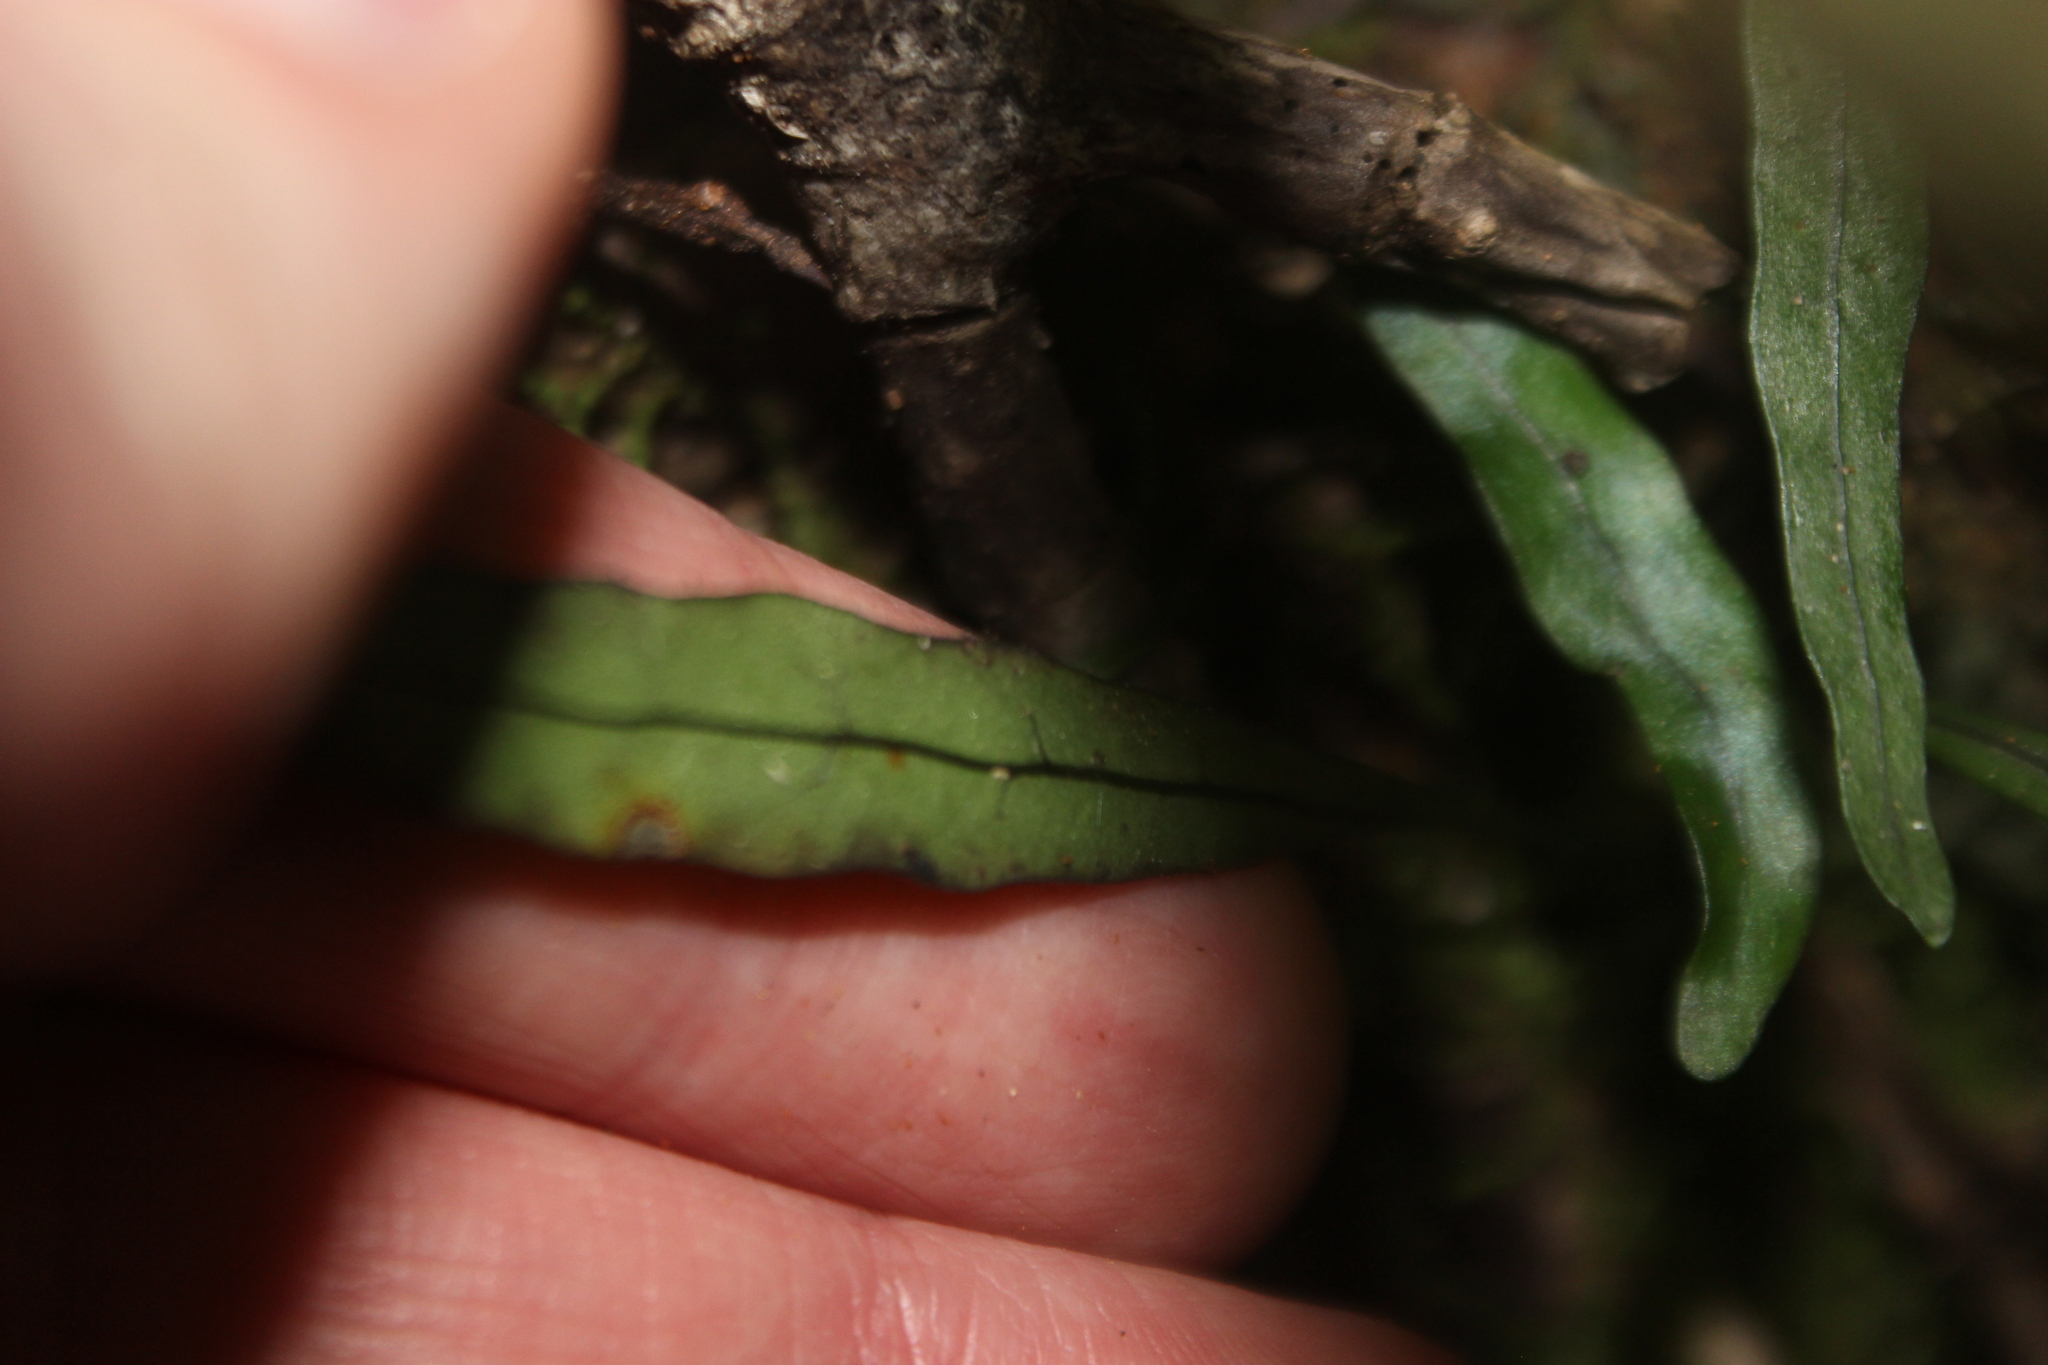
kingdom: Plantae
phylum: Tracheophyta
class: Polypodiopsida
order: Polypodiales
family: Polypodiaceae
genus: Lecanopteris
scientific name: Lecanopteris scandens
